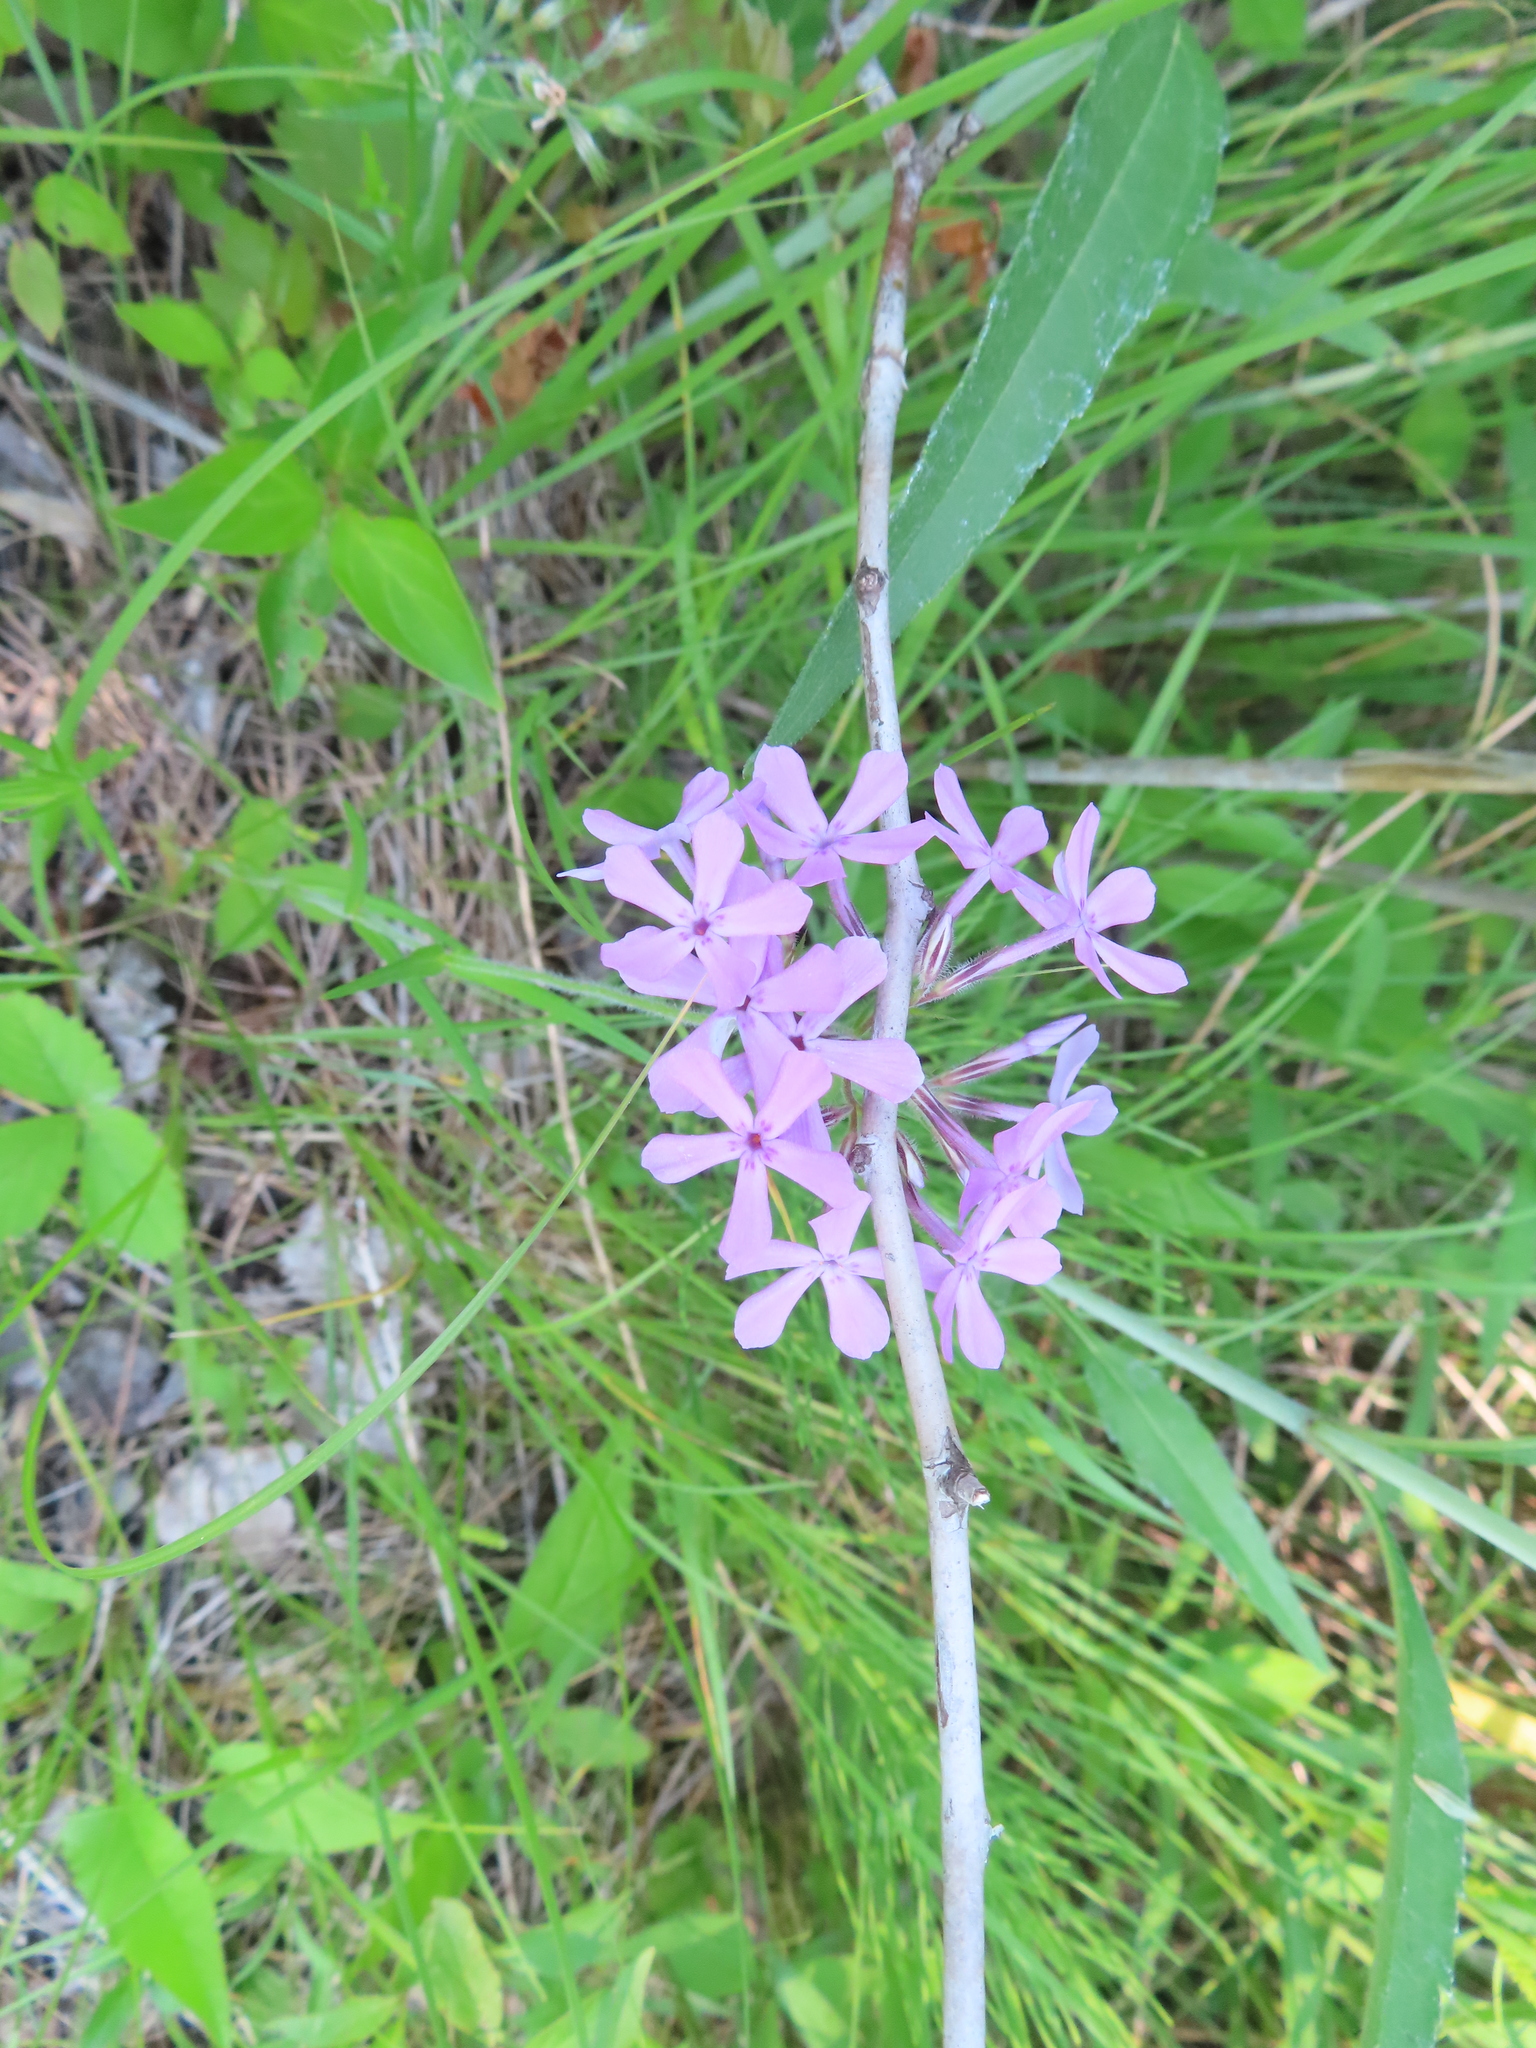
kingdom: Plantae
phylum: Tracheophyta
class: Magnoliopsida
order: Ericales
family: Polemoniaceae
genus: Phlox
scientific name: Phlox pilosa
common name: Prairie phlox
